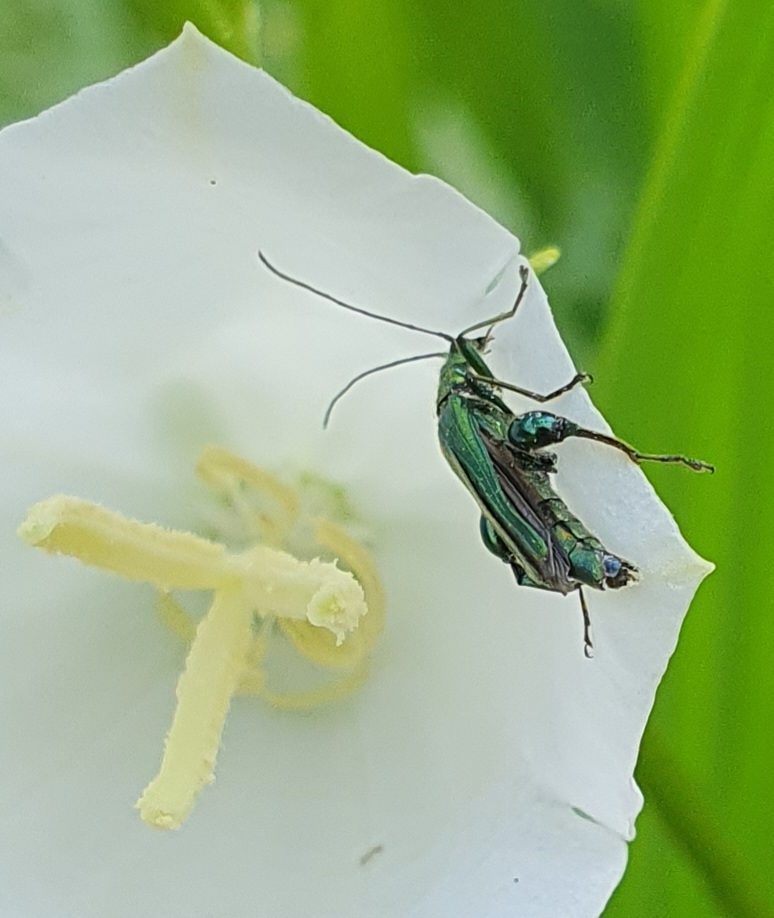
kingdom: Animalia
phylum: Arthropoda
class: Insecta
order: Coleoptera
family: Oedemeridae
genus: Oedemera
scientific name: Oedemera nobilis
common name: Swollen-thighed beetle
